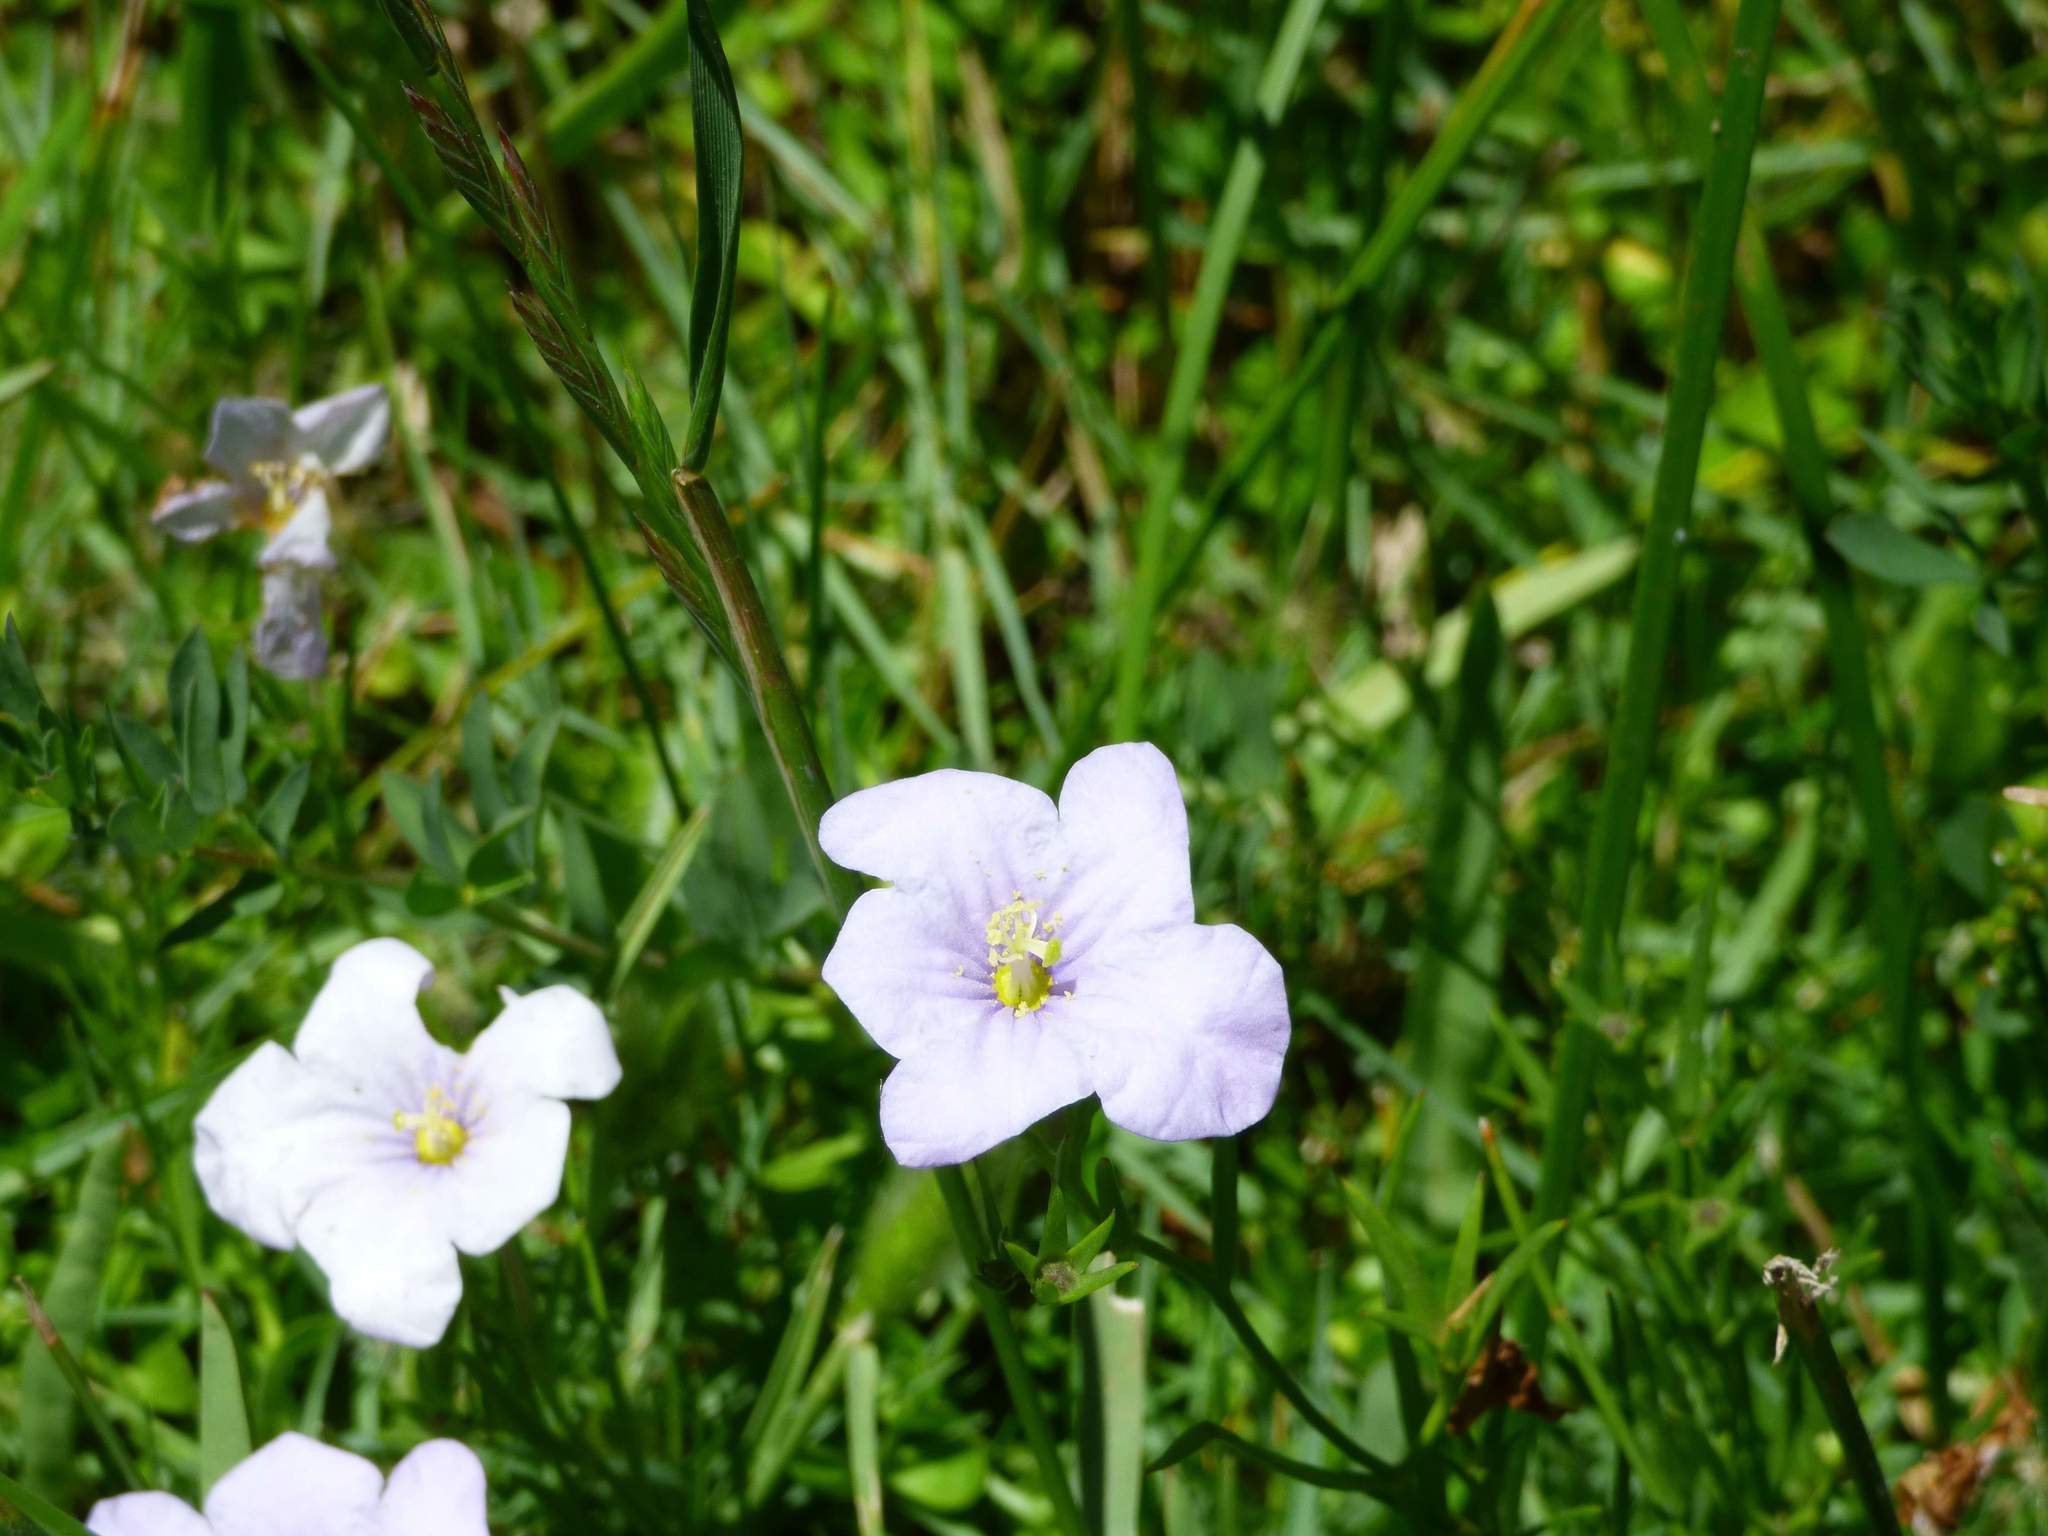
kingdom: Plantae
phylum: Tracheophyta
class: Magnoliopsida
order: Solanales
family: Solanaceae
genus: Nierembergia
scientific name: Nierembergia aristata
